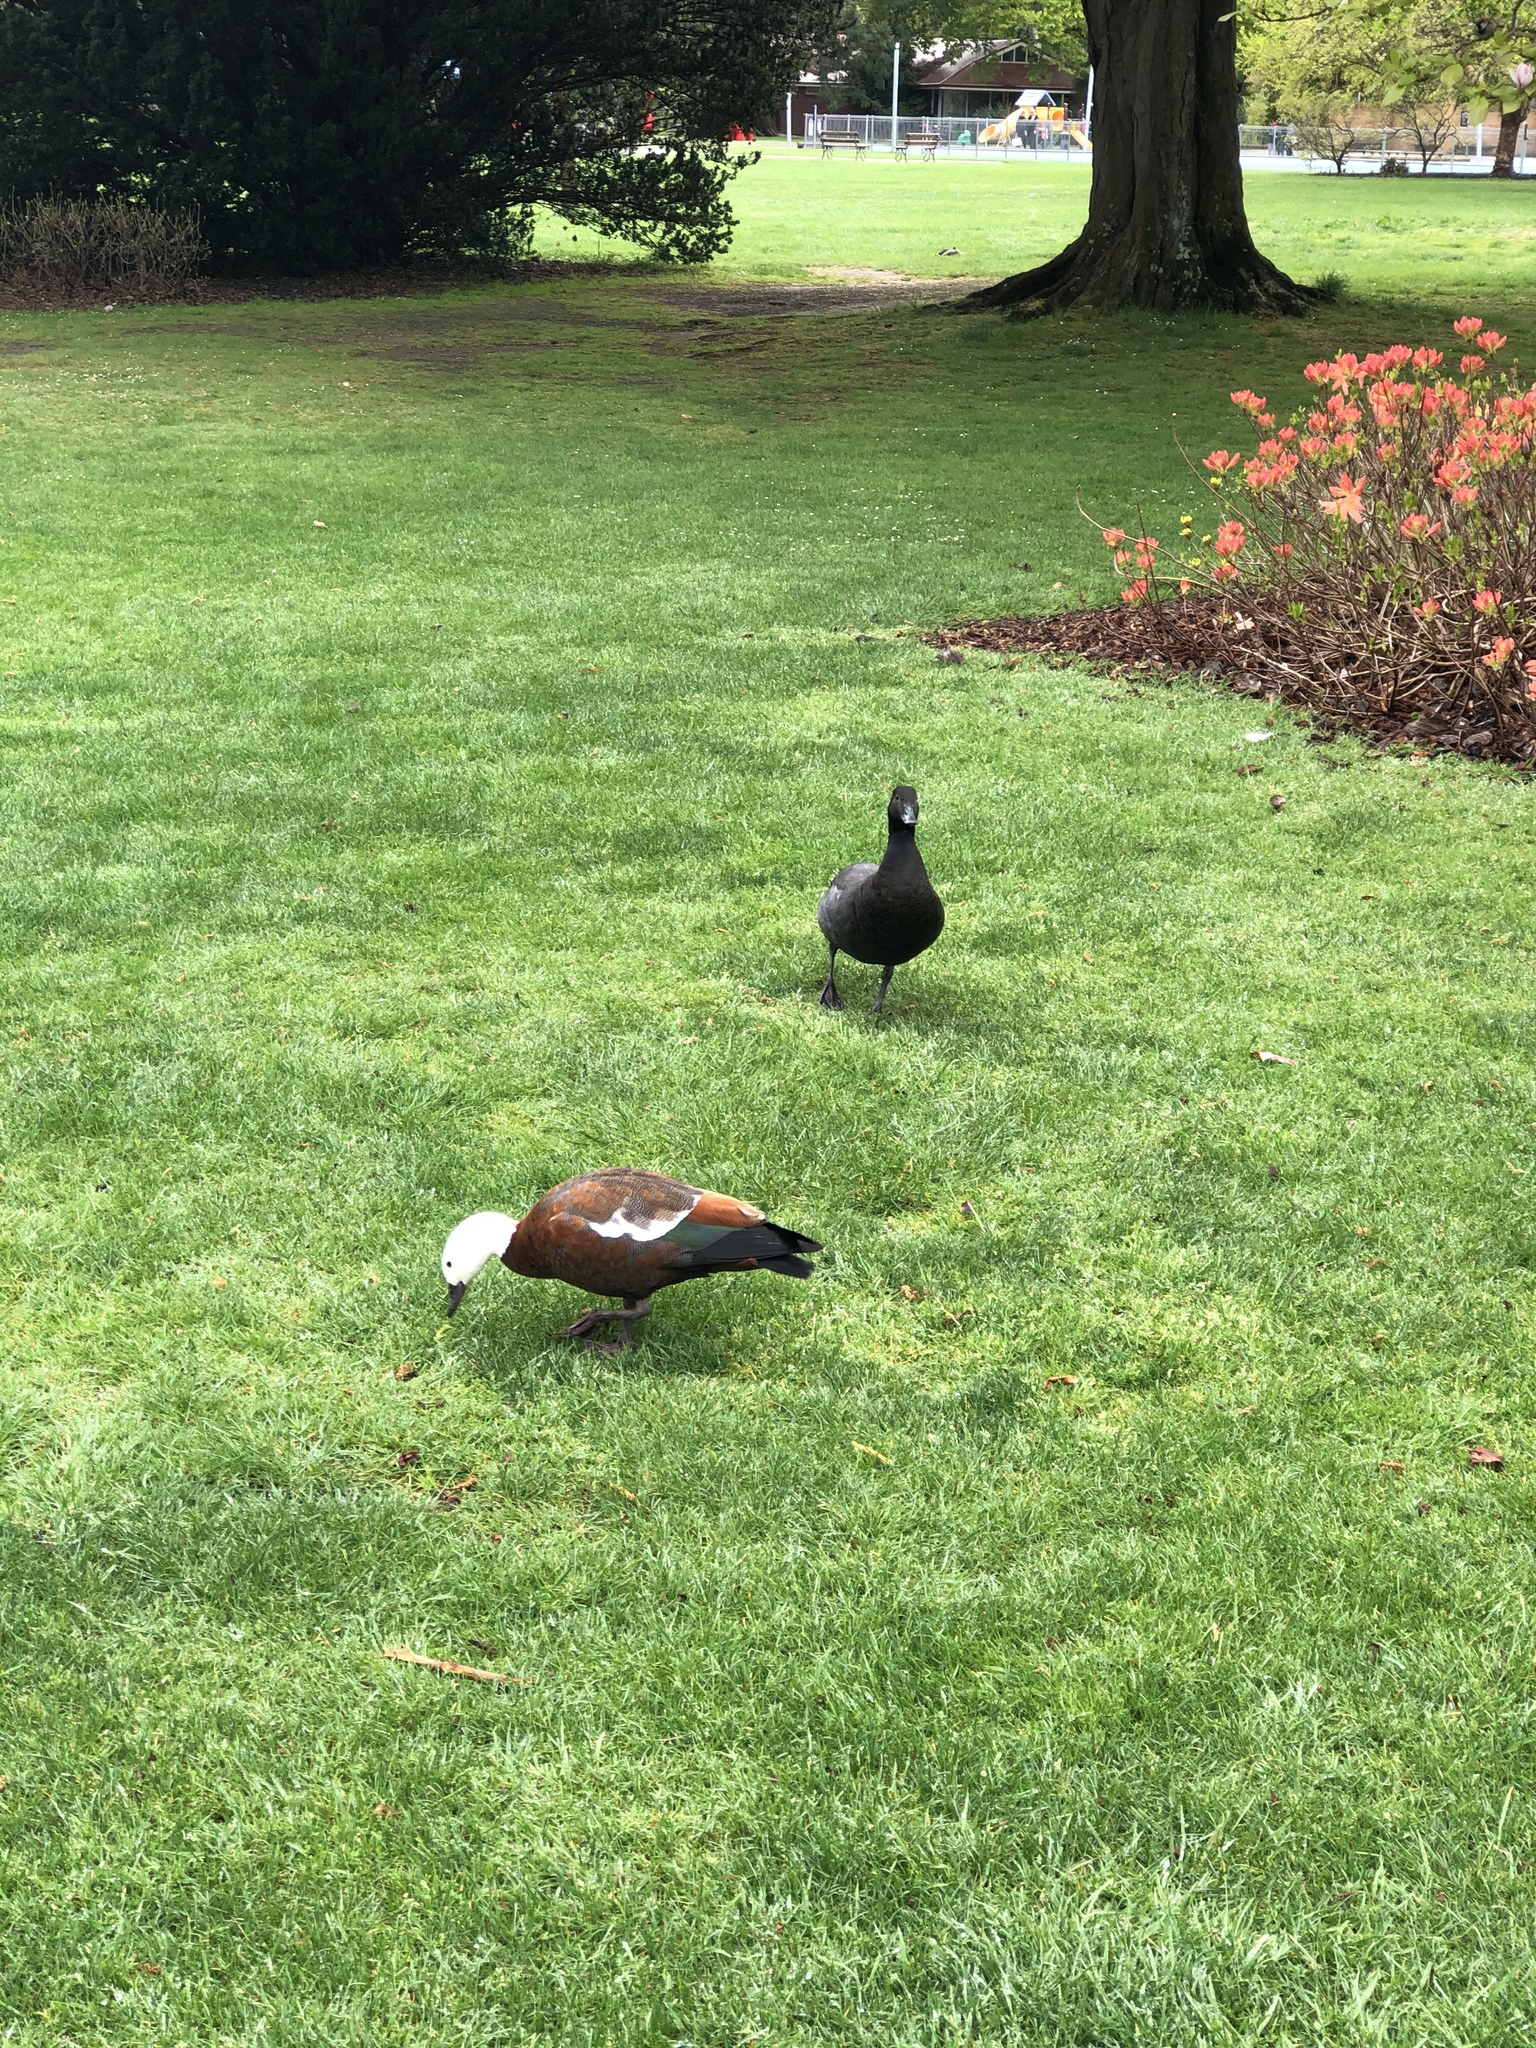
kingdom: Animalia
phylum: Chordata
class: Aves
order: Anseriformes
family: Anatidae
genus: Tadorna
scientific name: Tadorna variegata
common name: Paradise shelduck
